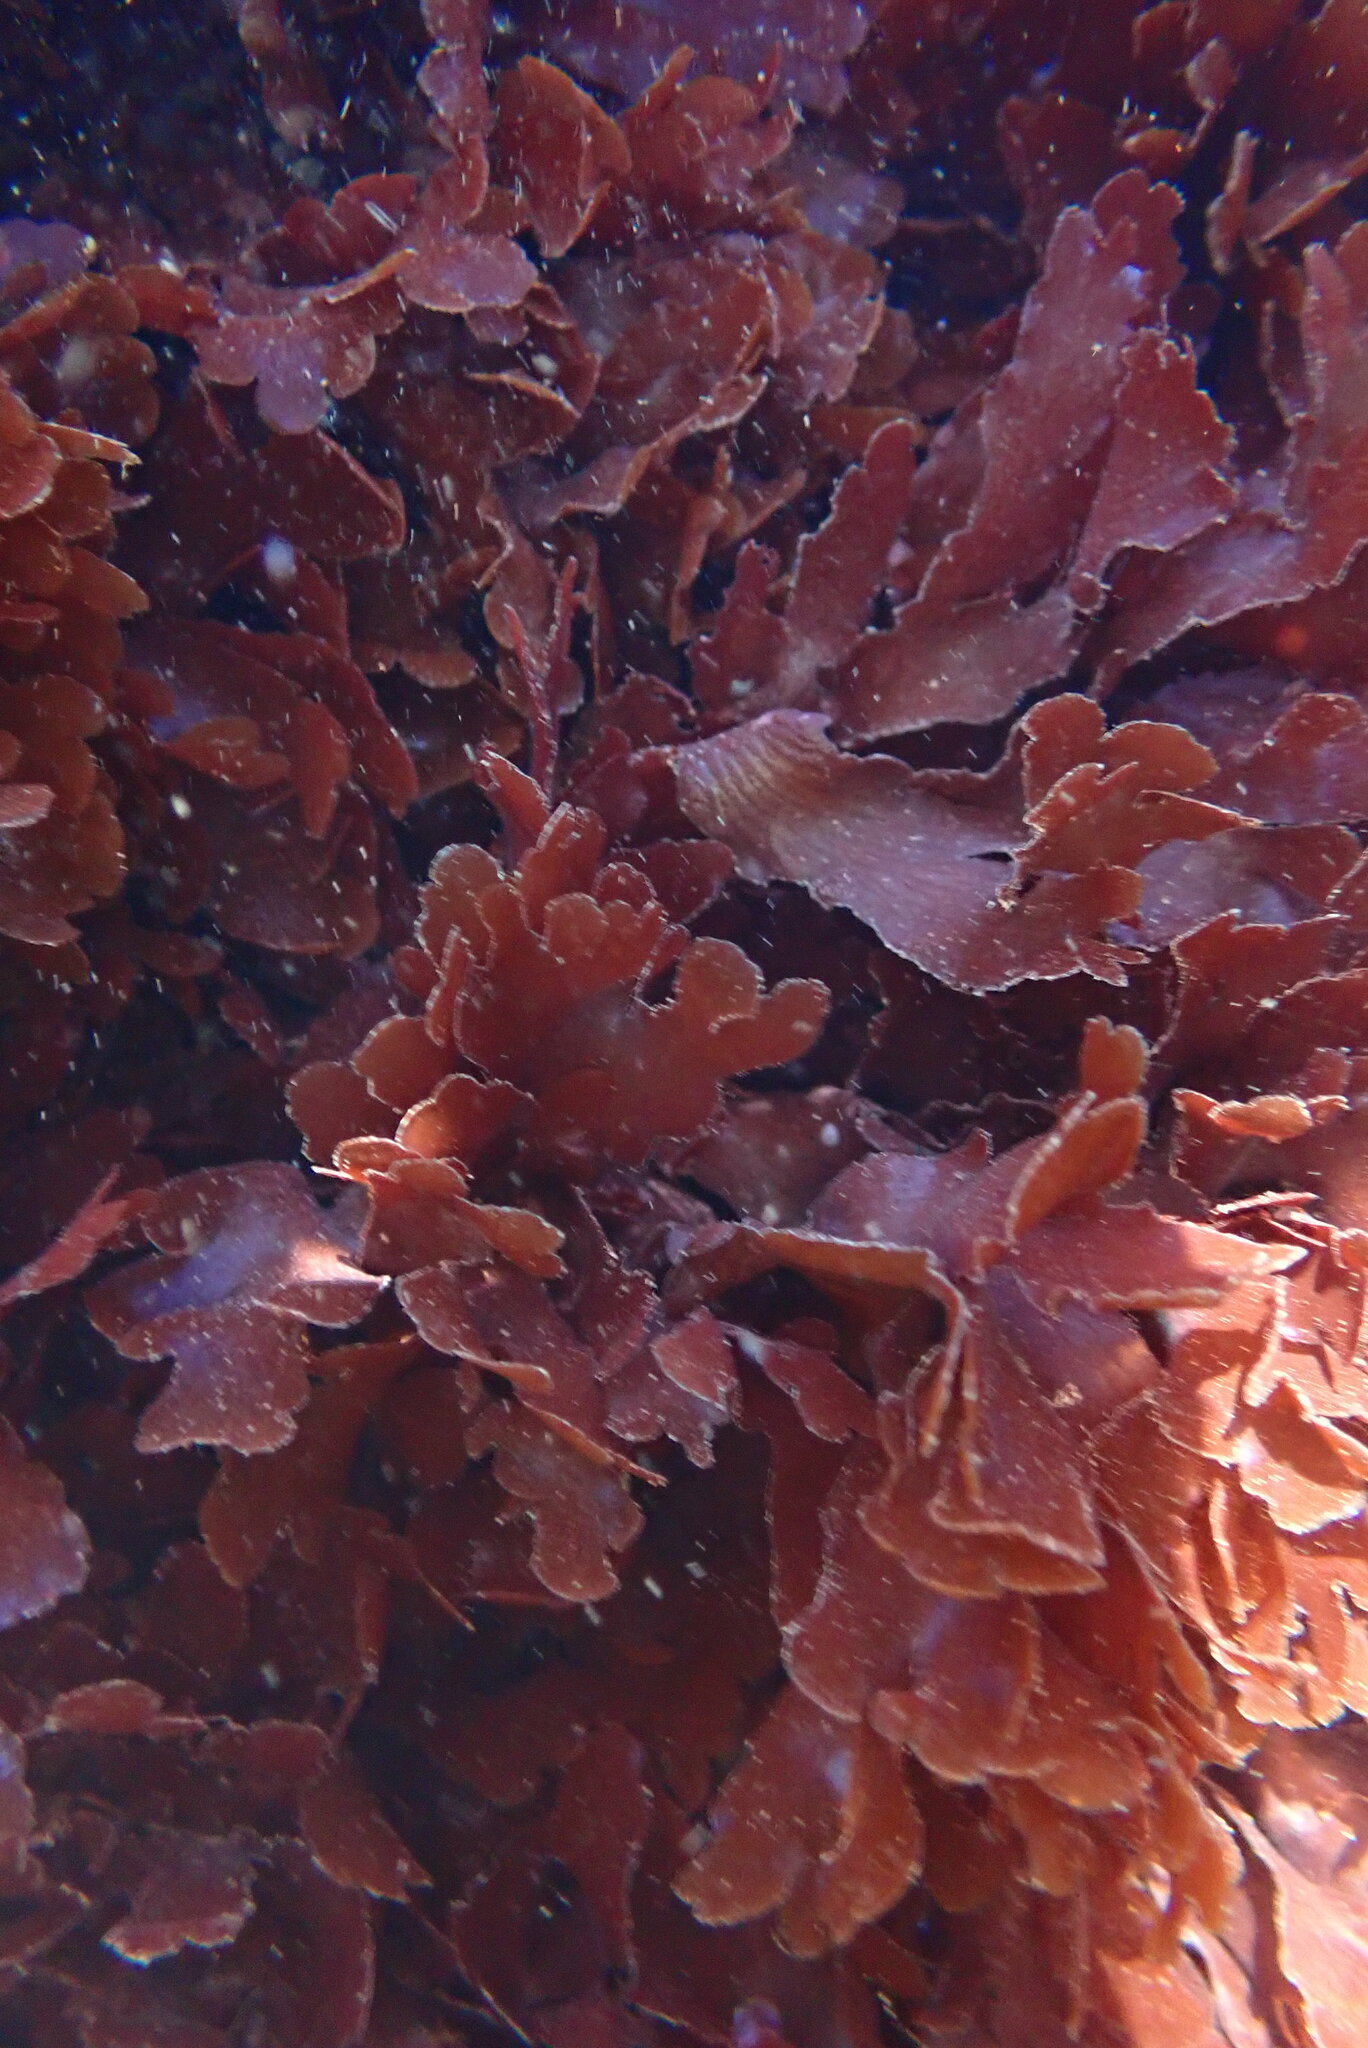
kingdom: Plantae
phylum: Rhodophyta
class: Florideophyceae
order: Ceramiales
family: Delesseriaceae
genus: Cryptopleura
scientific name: Cryptopleura ruprechtiana
